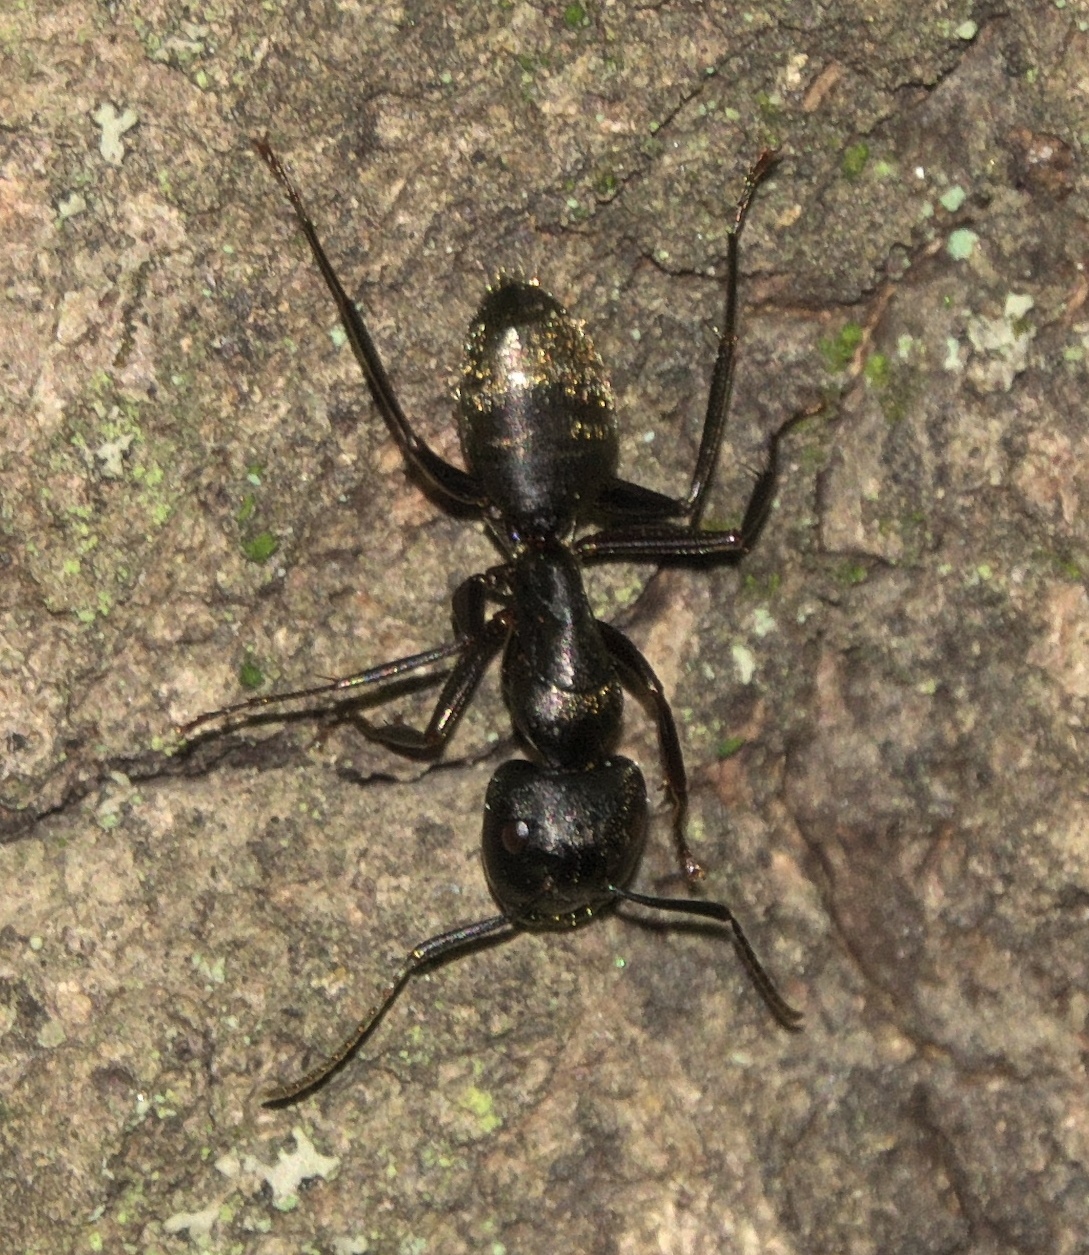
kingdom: Animalia
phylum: Arthropoda
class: Insecta
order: Hymenoptera
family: Formicidae
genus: Camponotus
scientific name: Camponotus pennsylvanicus
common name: Black carpenter ant
